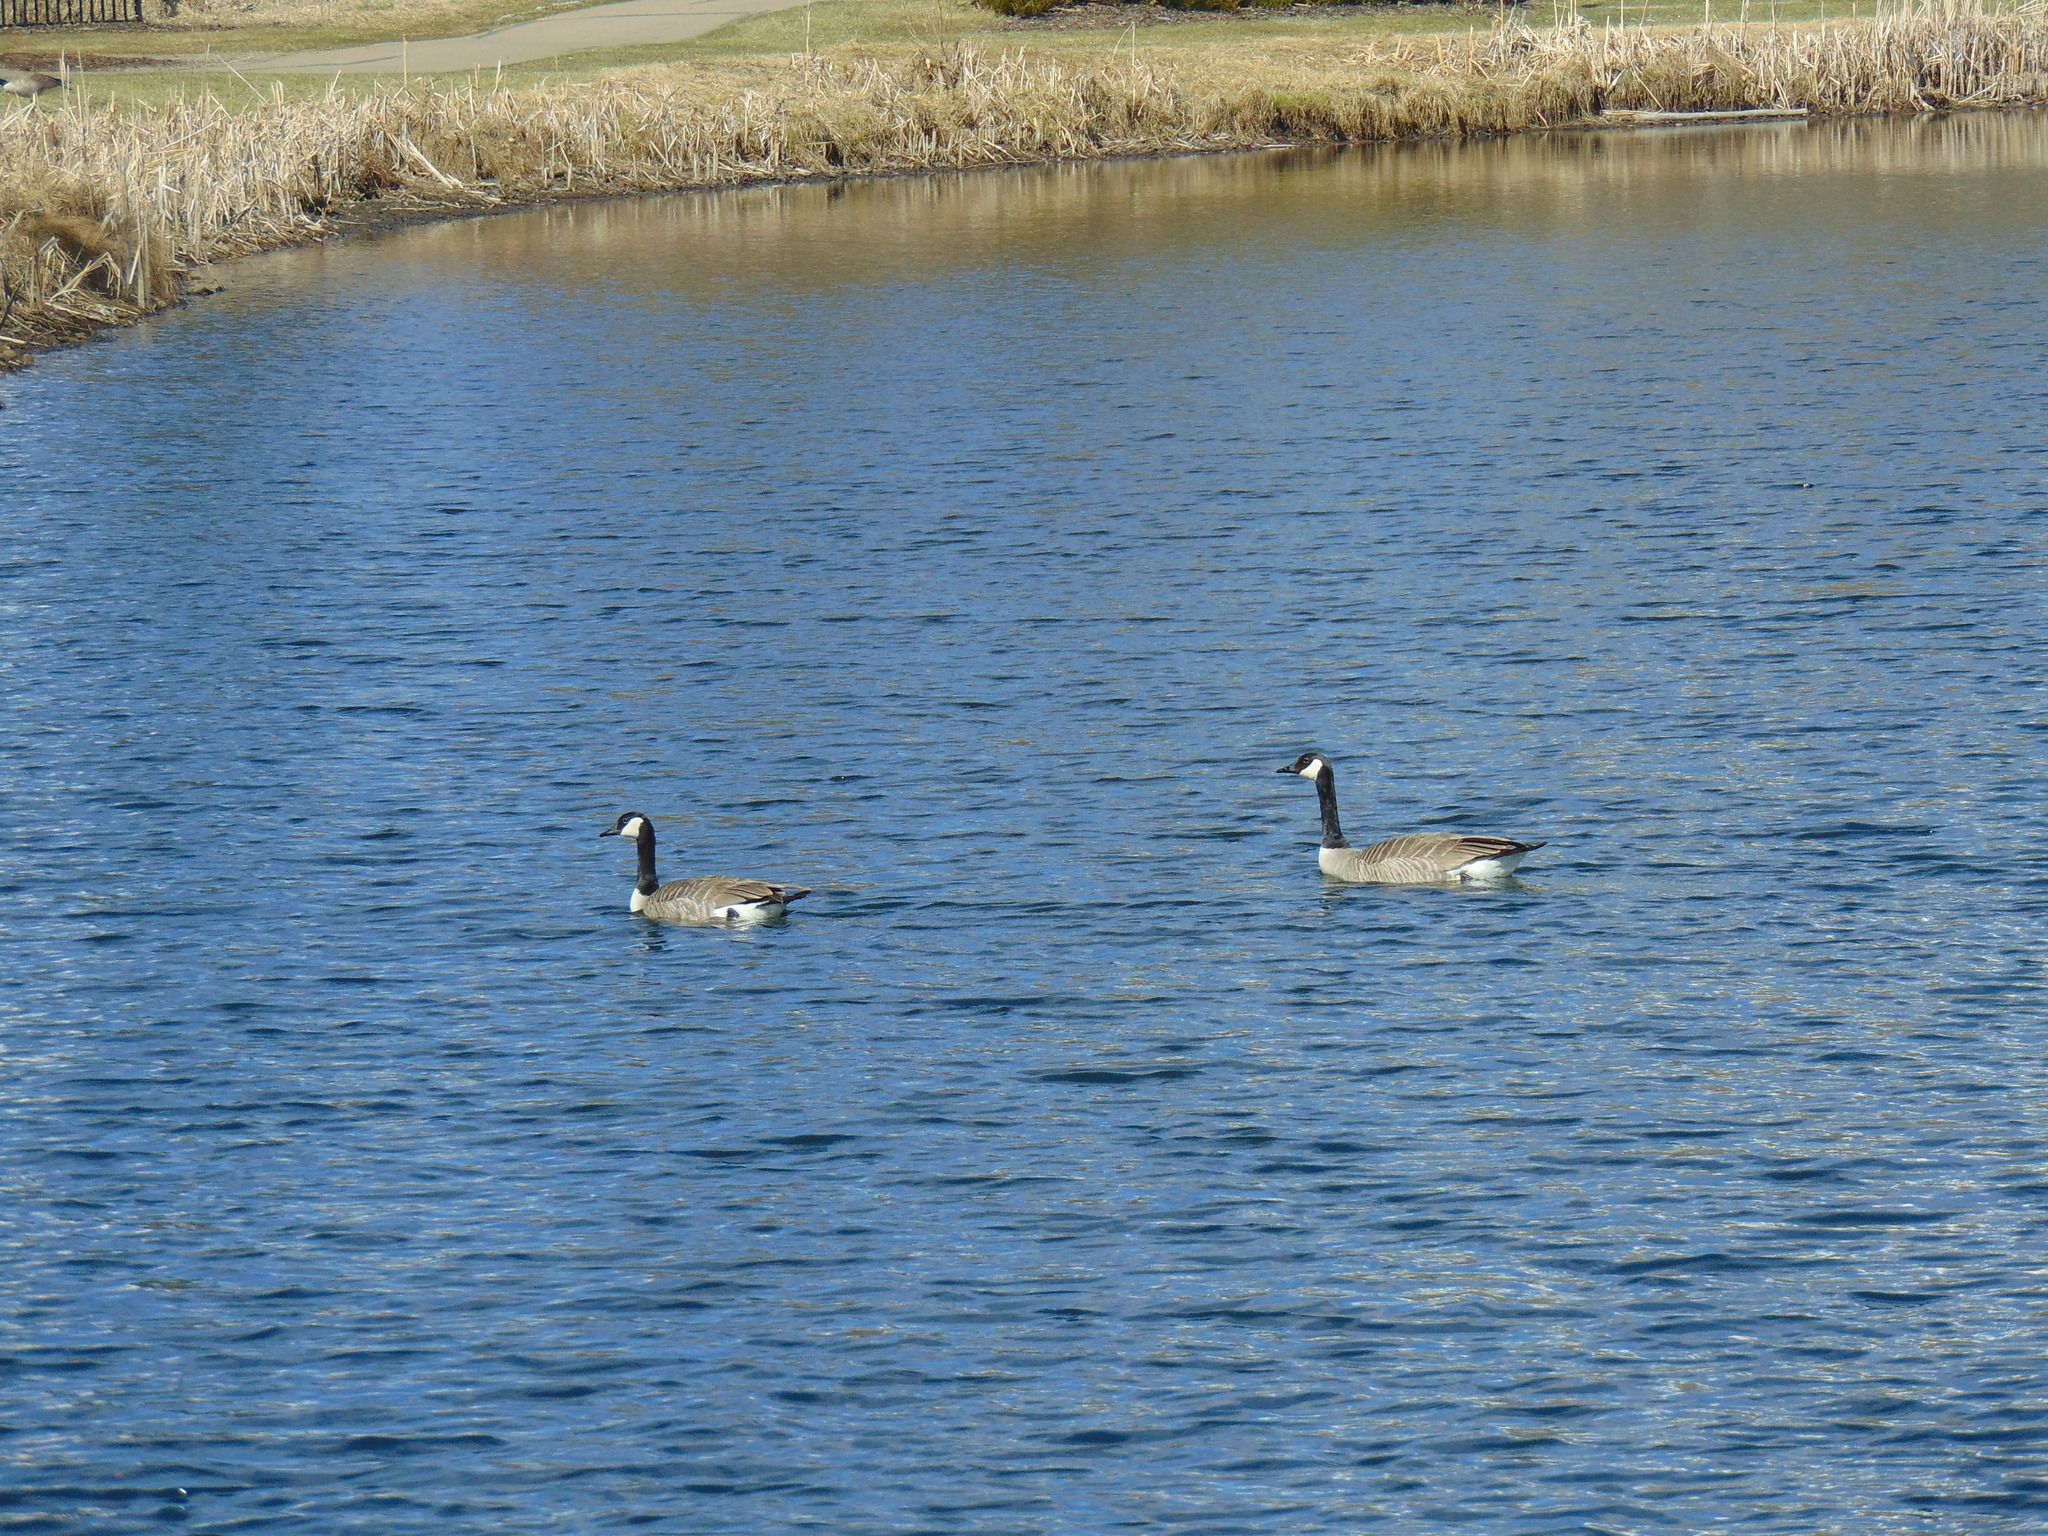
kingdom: Animalia
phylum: Chordata
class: Aves
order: Anseriformes
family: Anatidae
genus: Branta
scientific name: Branta canadensis
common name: Canada goose
